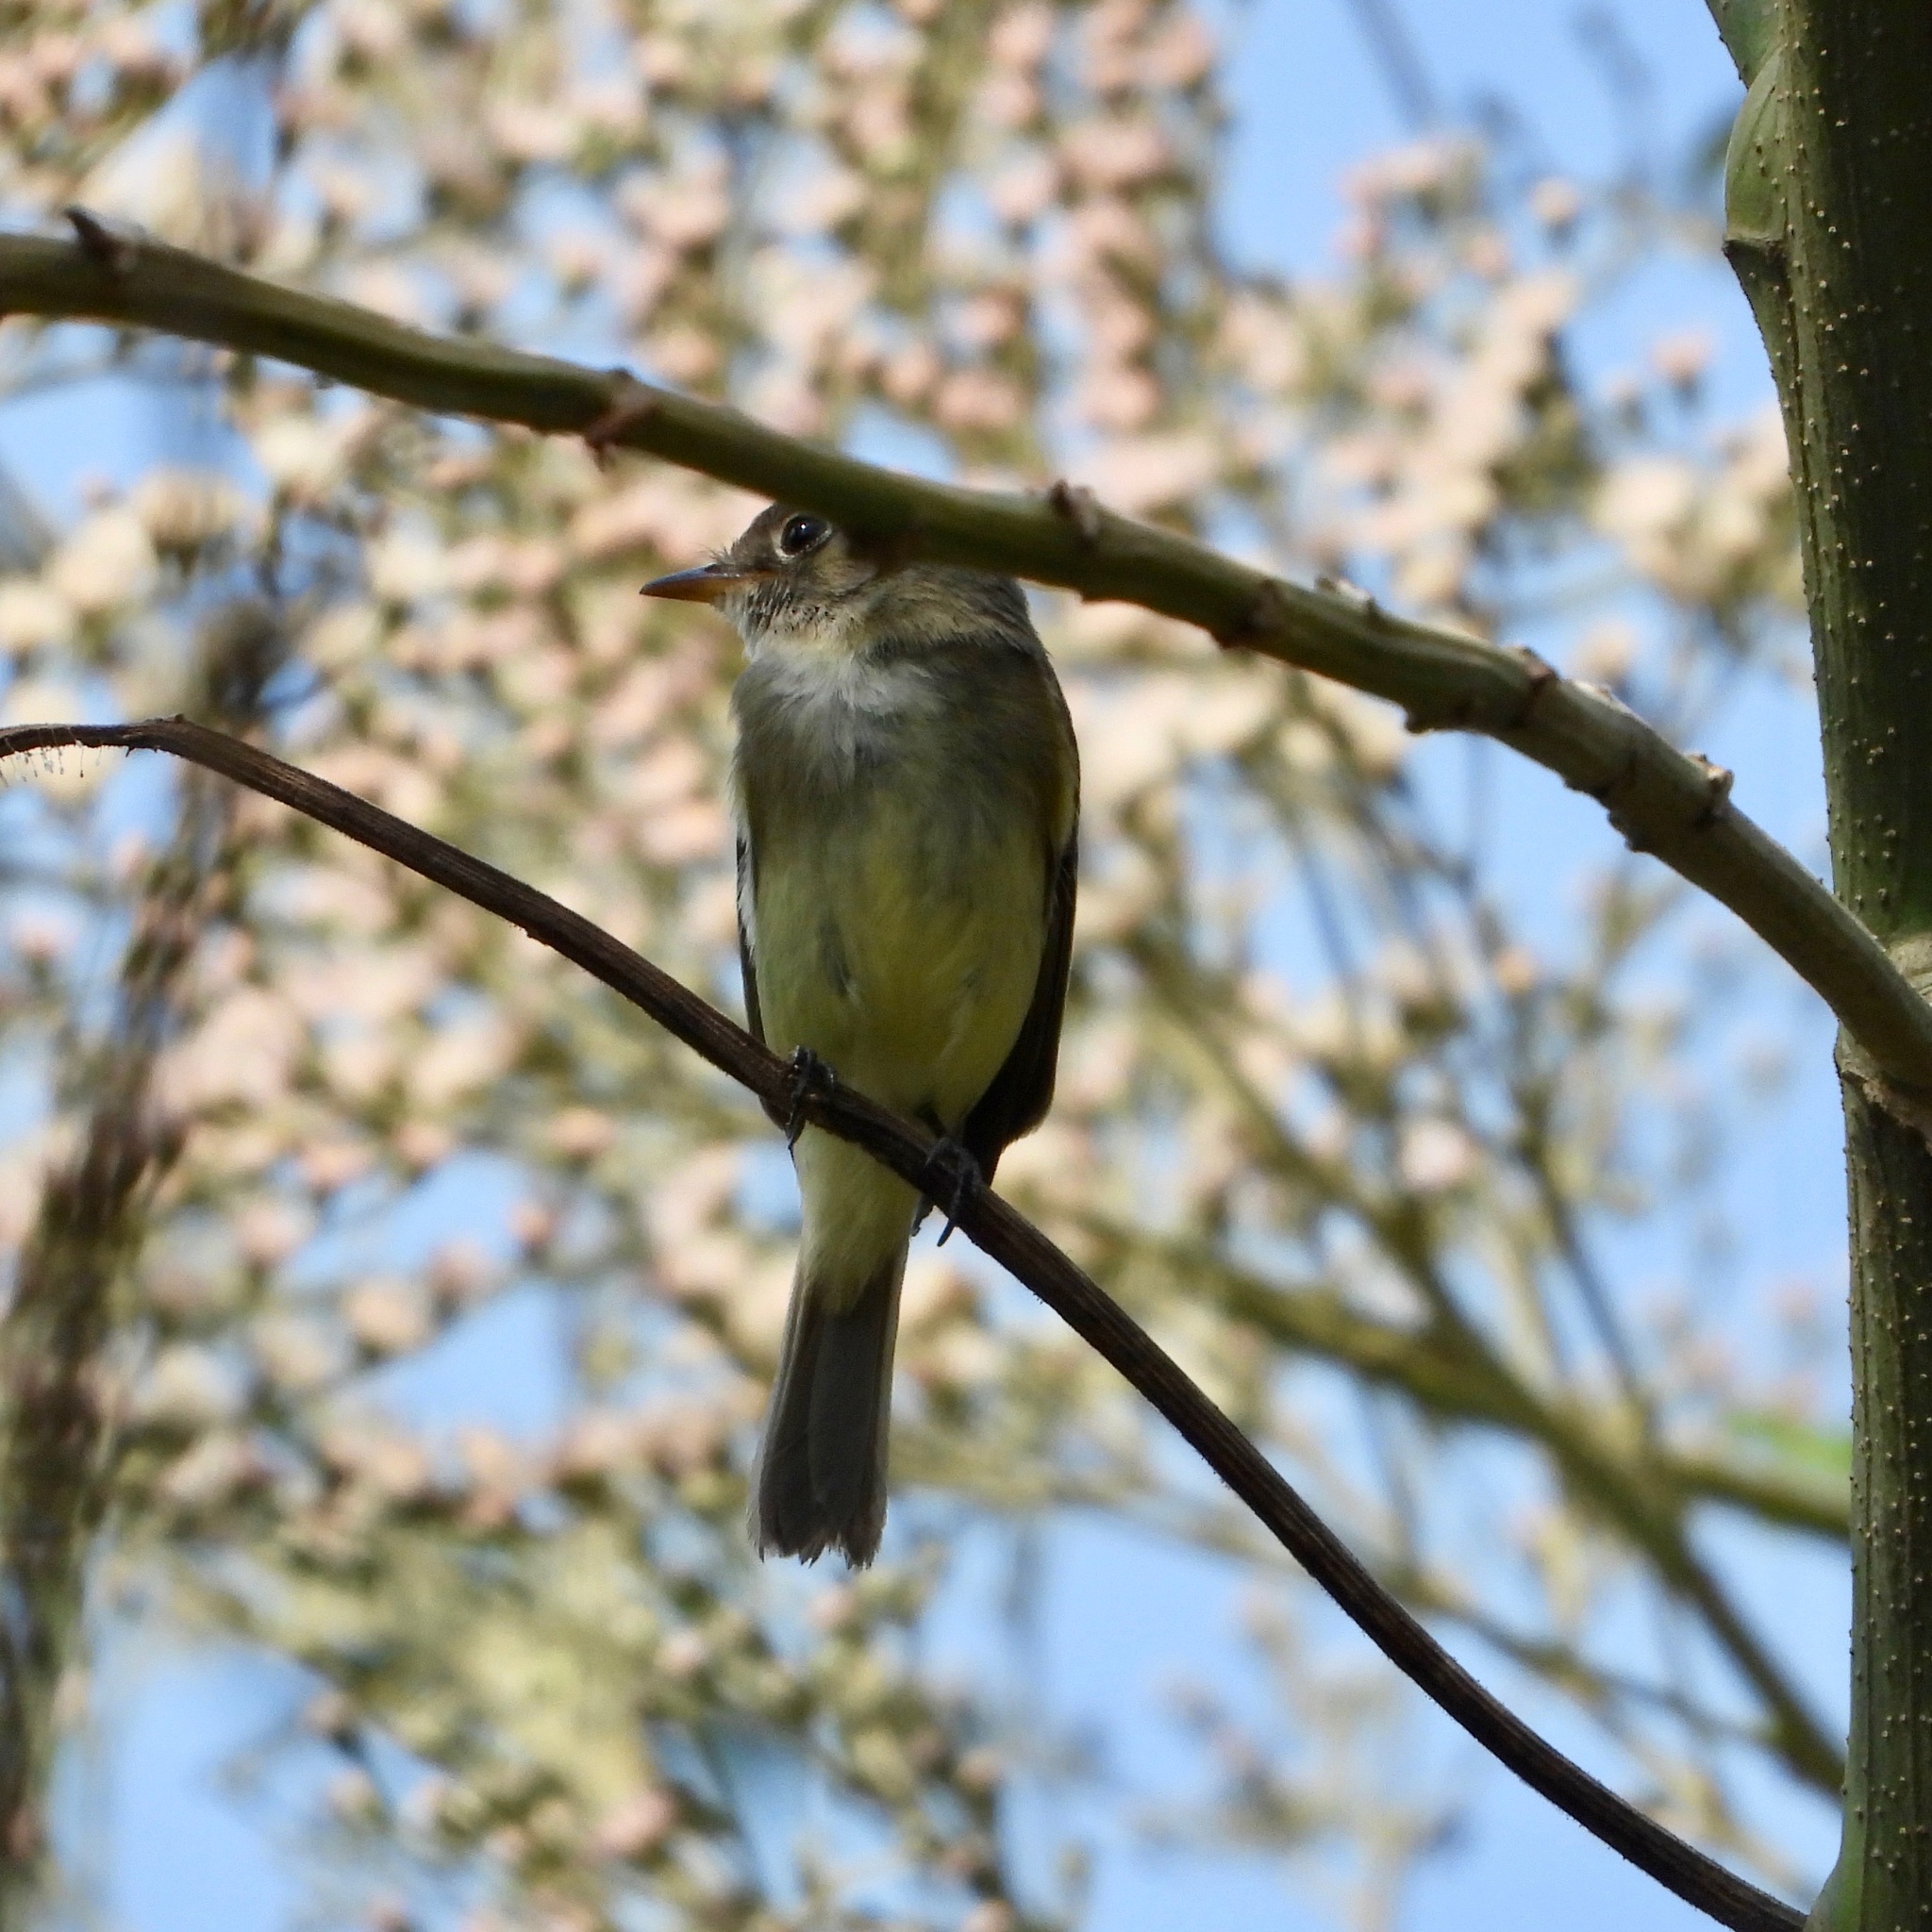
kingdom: Animalia
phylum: Chordata
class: Aves
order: Passeriformes
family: Tyrannidae
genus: Empidonax
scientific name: Empidonax minimus
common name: Least flycatcher
